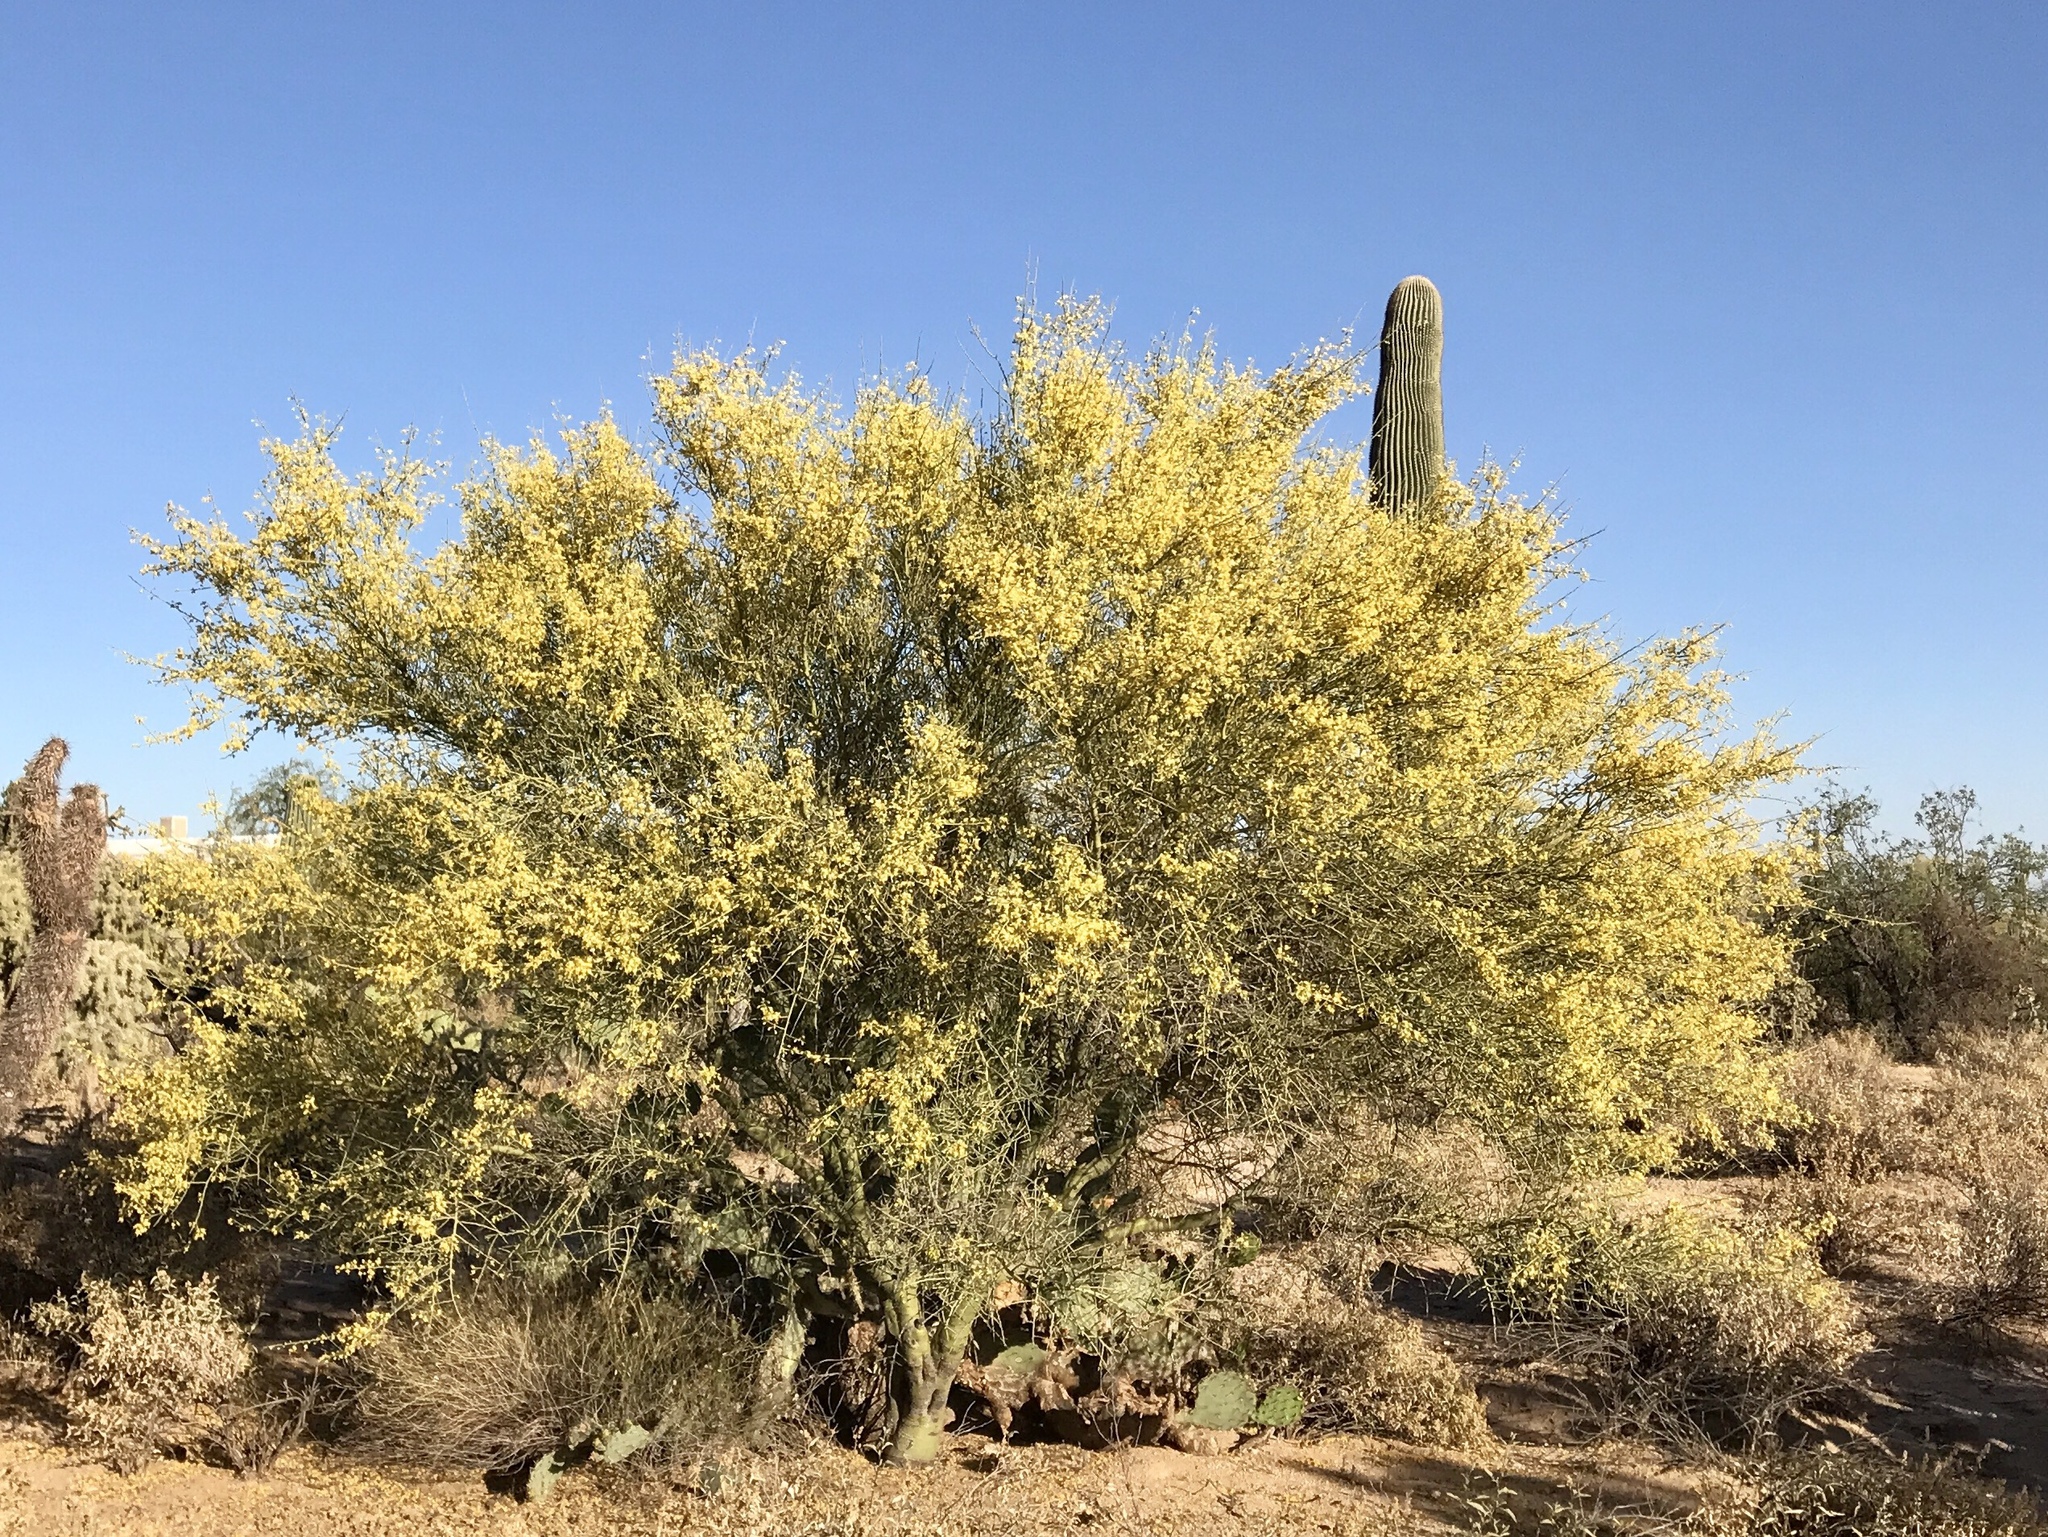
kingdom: Plantae
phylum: Tracheophyta
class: Magnoliopsida
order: Fabales
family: Fabaceae
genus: Parkinsonia
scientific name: Parkinsonia microphylla
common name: Yellow paloverde
